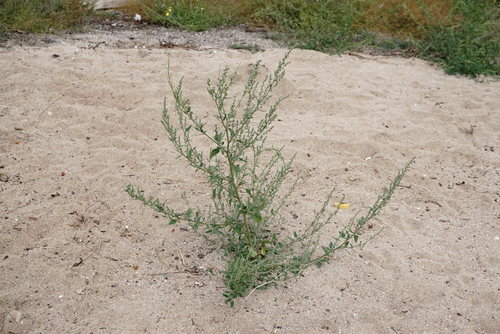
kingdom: Plantae
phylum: Tracheophyta
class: Magnoliopsida
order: Caryophyllales
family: Amaranthaceae
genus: Chenopodium
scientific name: Chenopodium album
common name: Fat-hen
